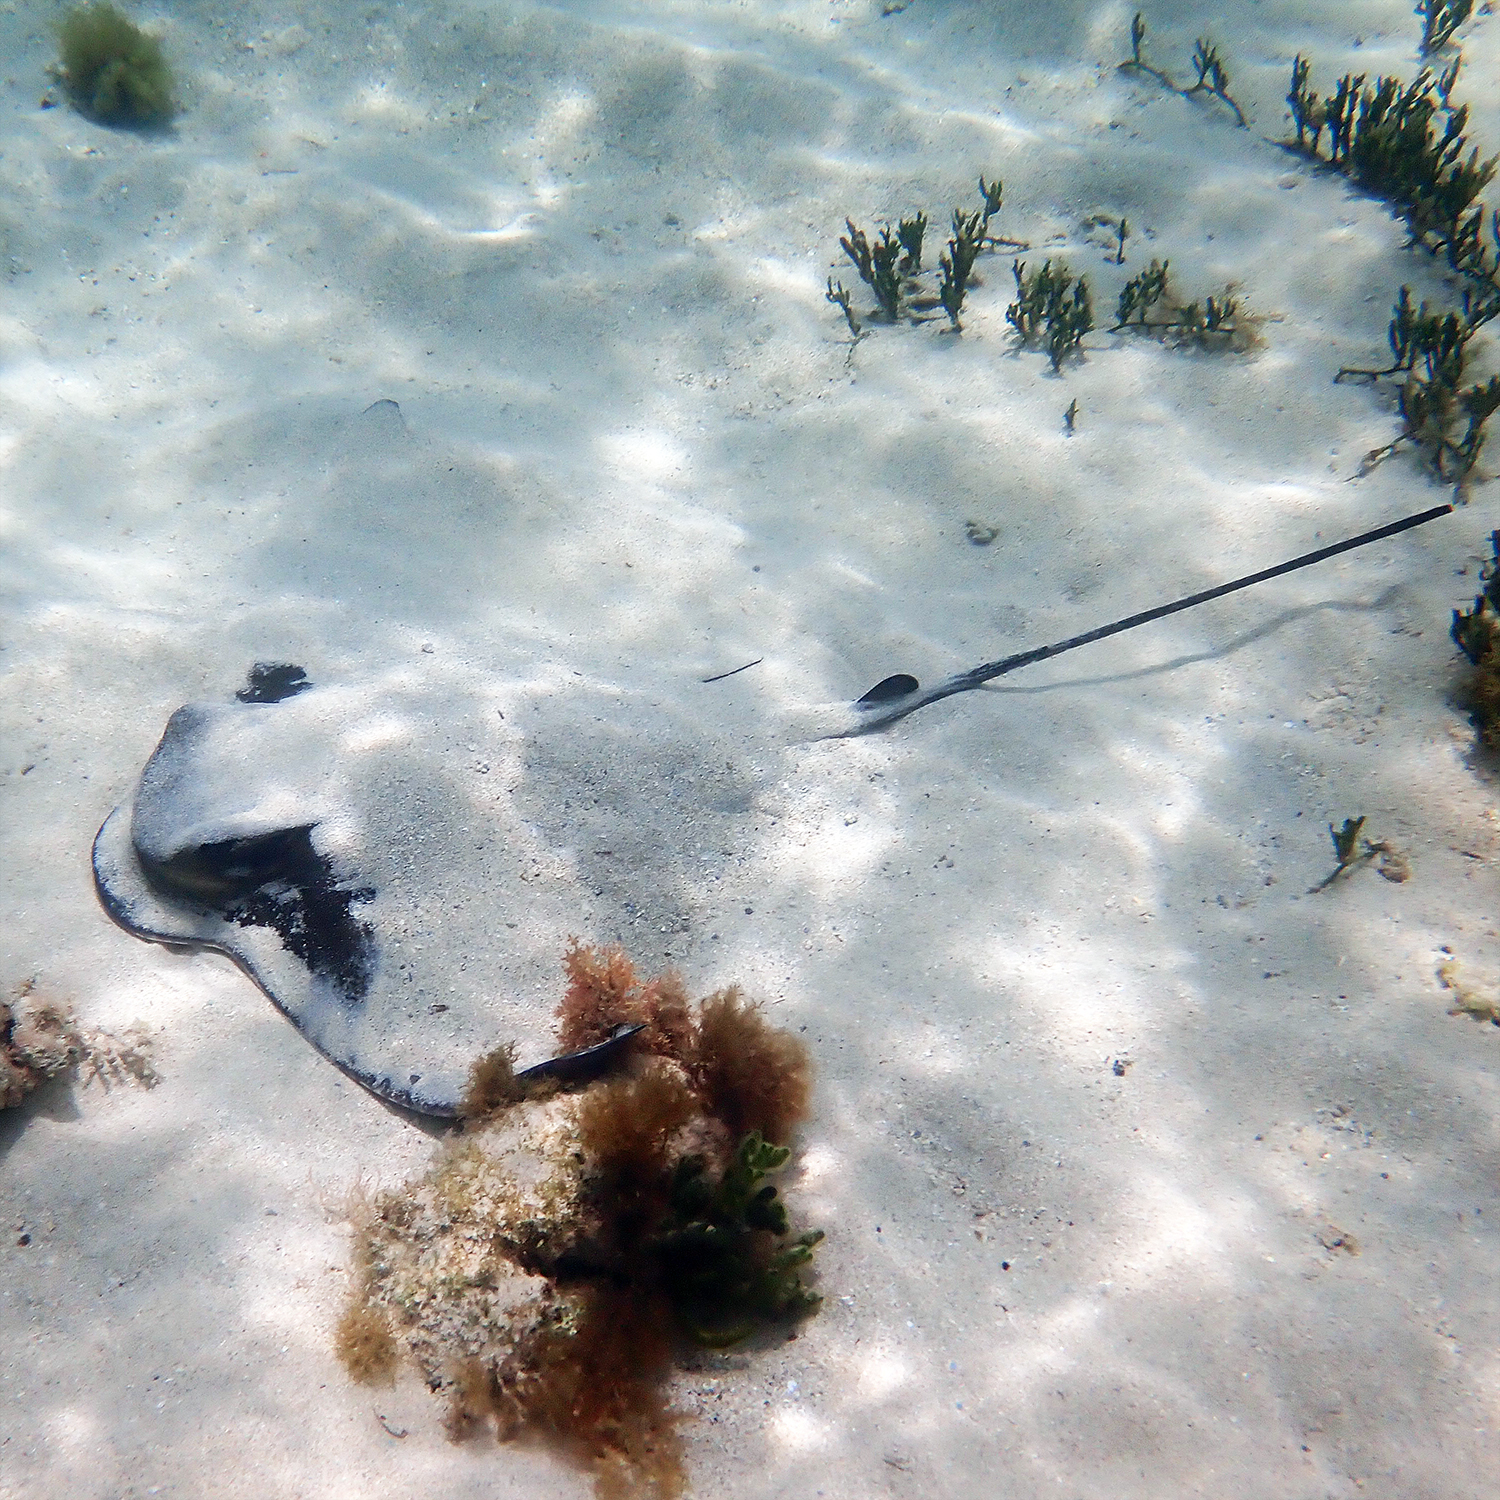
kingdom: Animalia
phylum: Chordata
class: Elasmobranchii
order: Myliobatiformes
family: Myliobatidae
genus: Myliobatis
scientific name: Myliobatis tenuicaudatus
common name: Eagle ray
